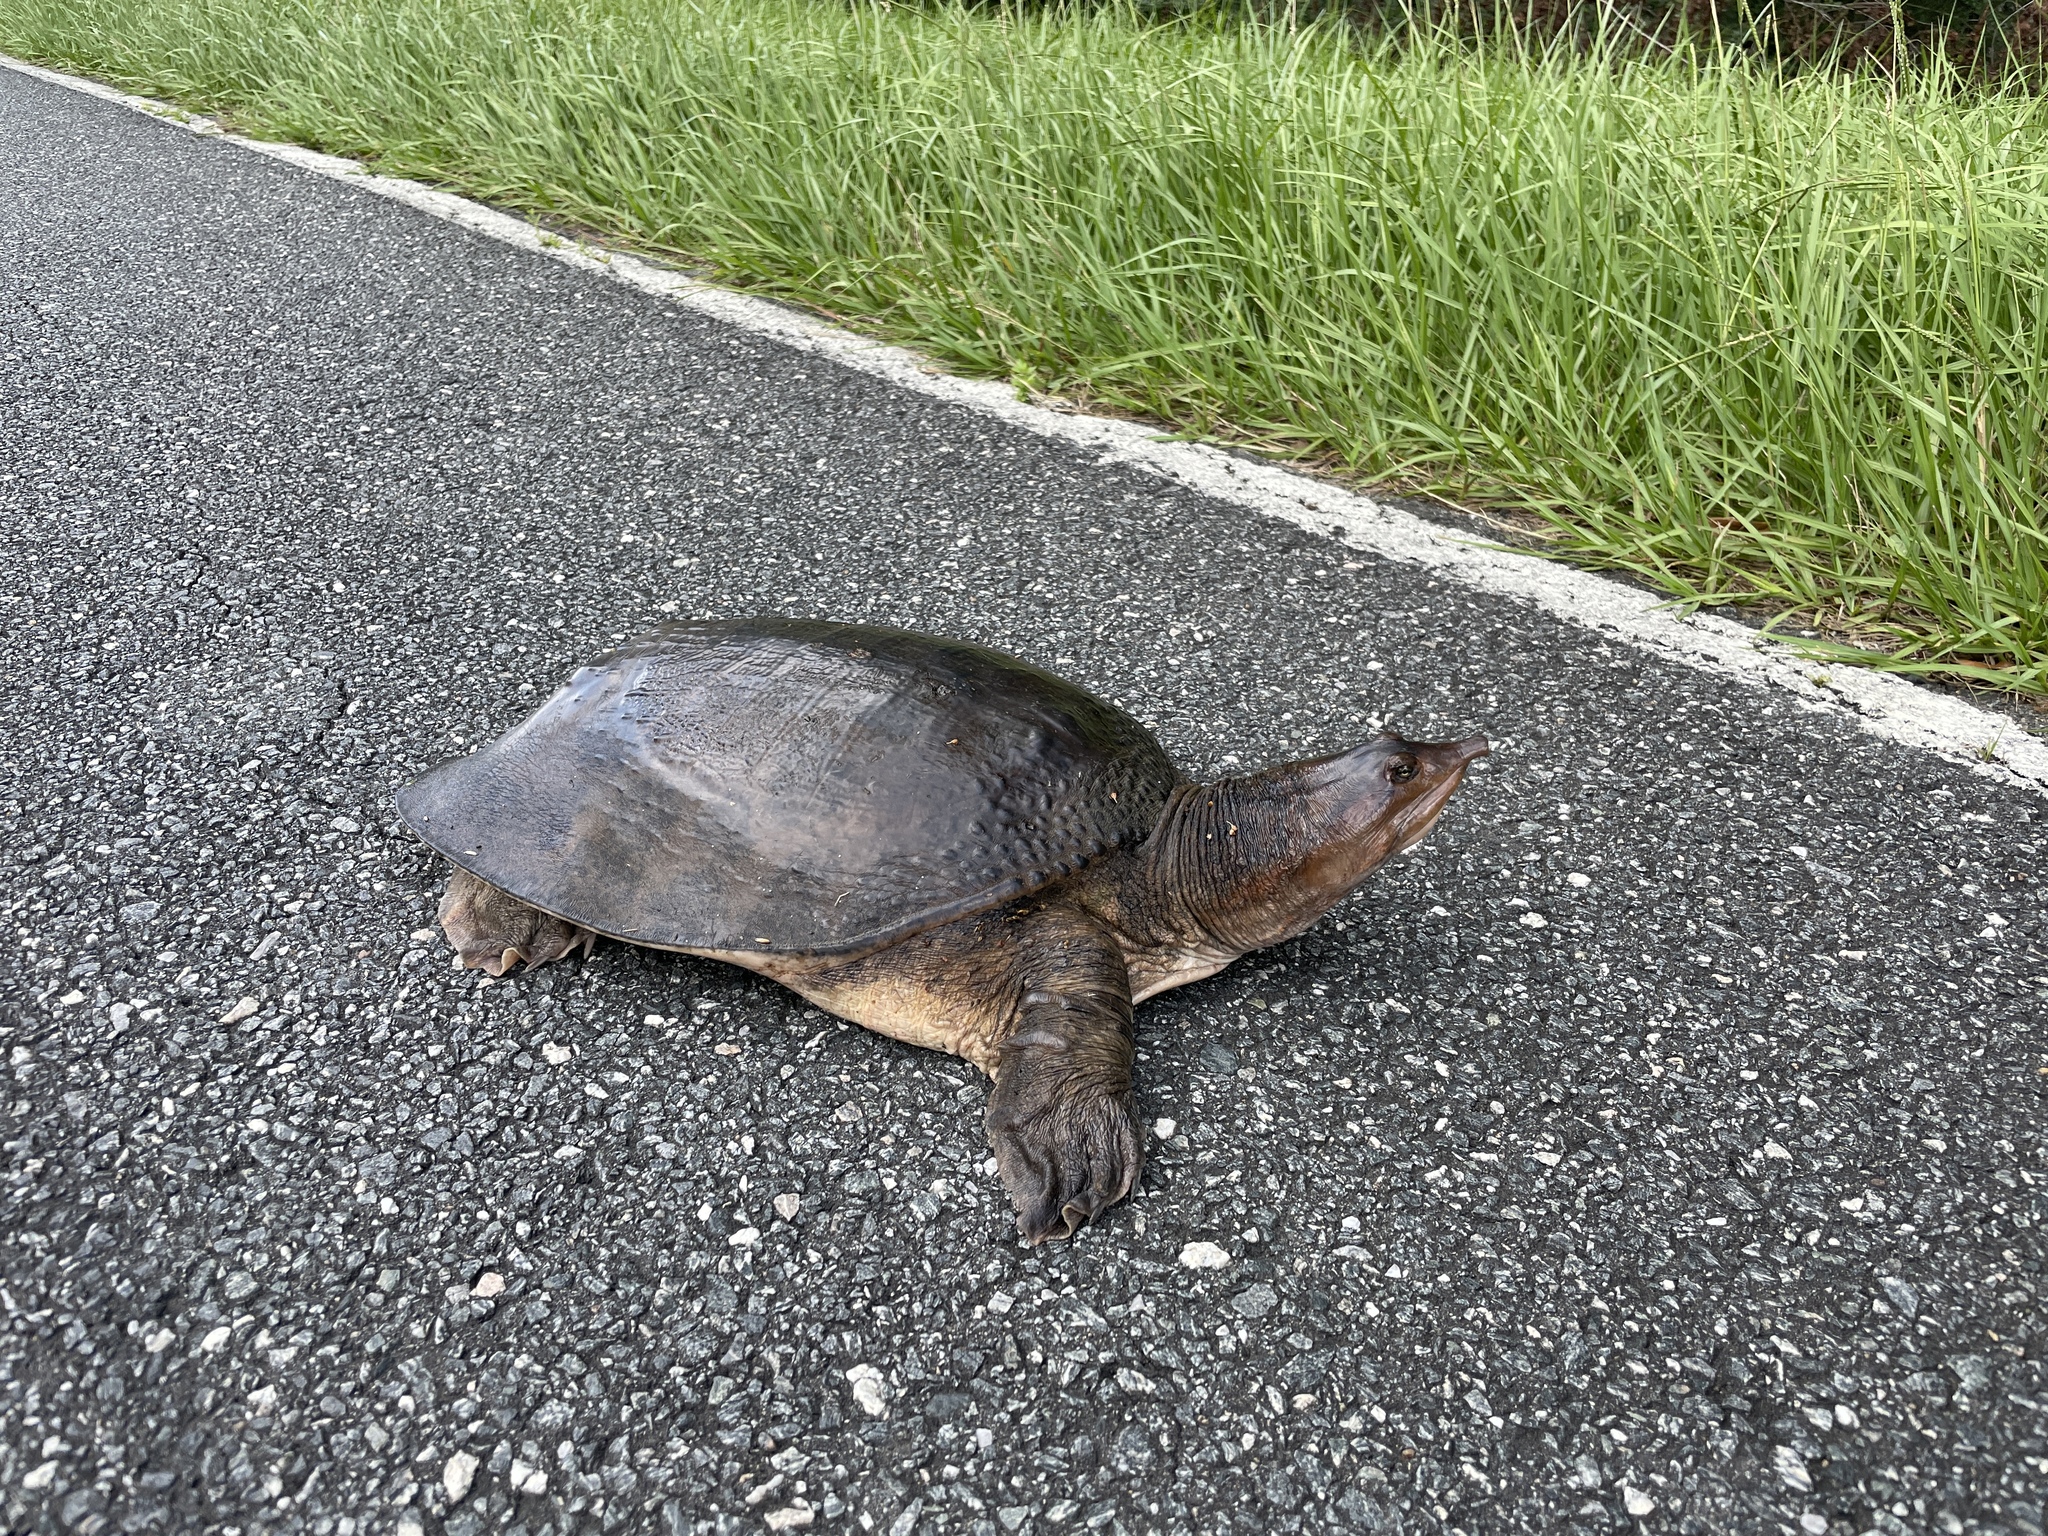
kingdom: Animalia
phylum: Chordata
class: Testudines
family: Trionychidae
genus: Apalone
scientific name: Apalone ferox
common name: Florida softshell turtle
